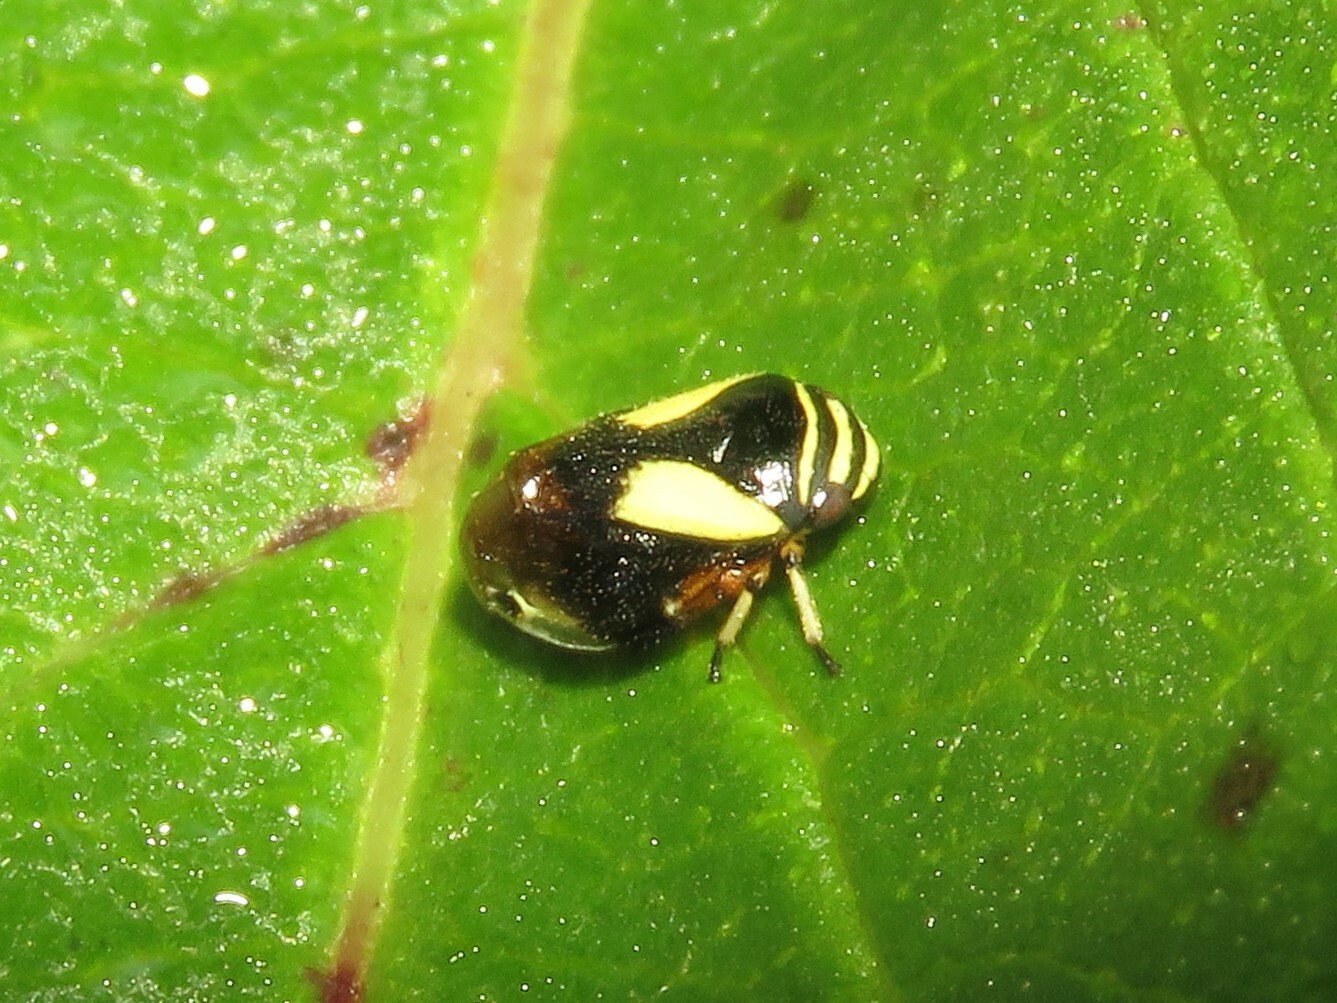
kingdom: Animalia
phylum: Arthropoda
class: Insecta
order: Hemiptera
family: Clastopteridae
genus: Clastoptera
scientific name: Clastoptera proteus
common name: Dogwood spittlebug
